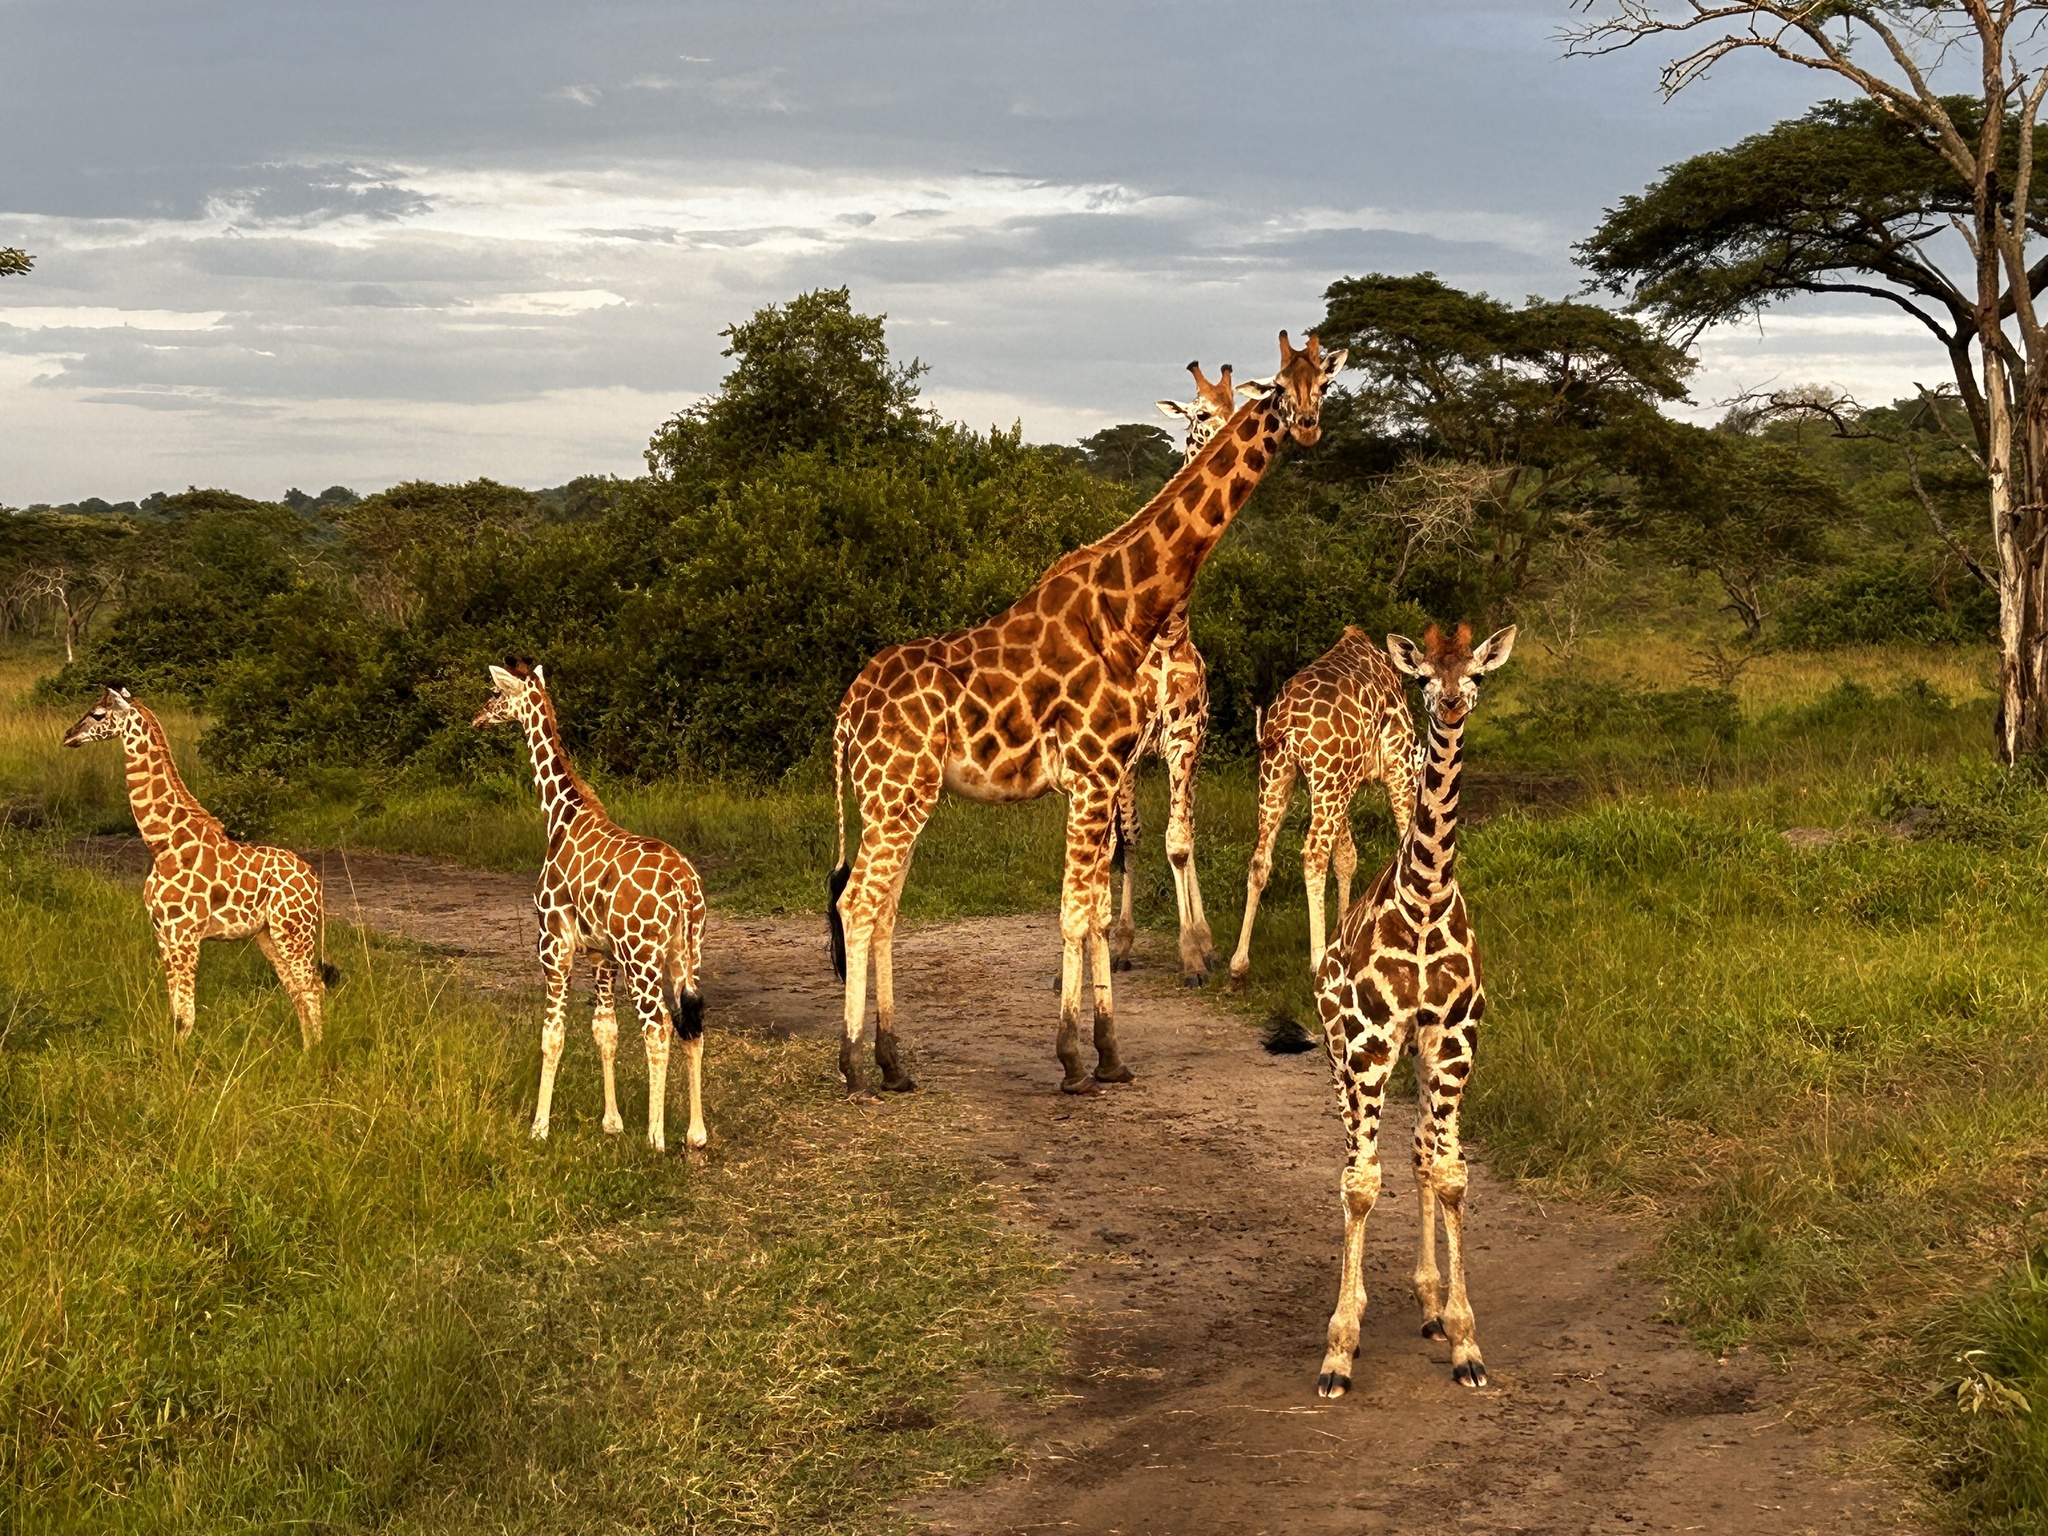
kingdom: Animalia
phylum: Chordata
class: Mammalia
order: Artiodactyla
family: Giraffidae
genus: Giraffa
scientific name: Giraffa camelopardalis
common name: Giraffe
